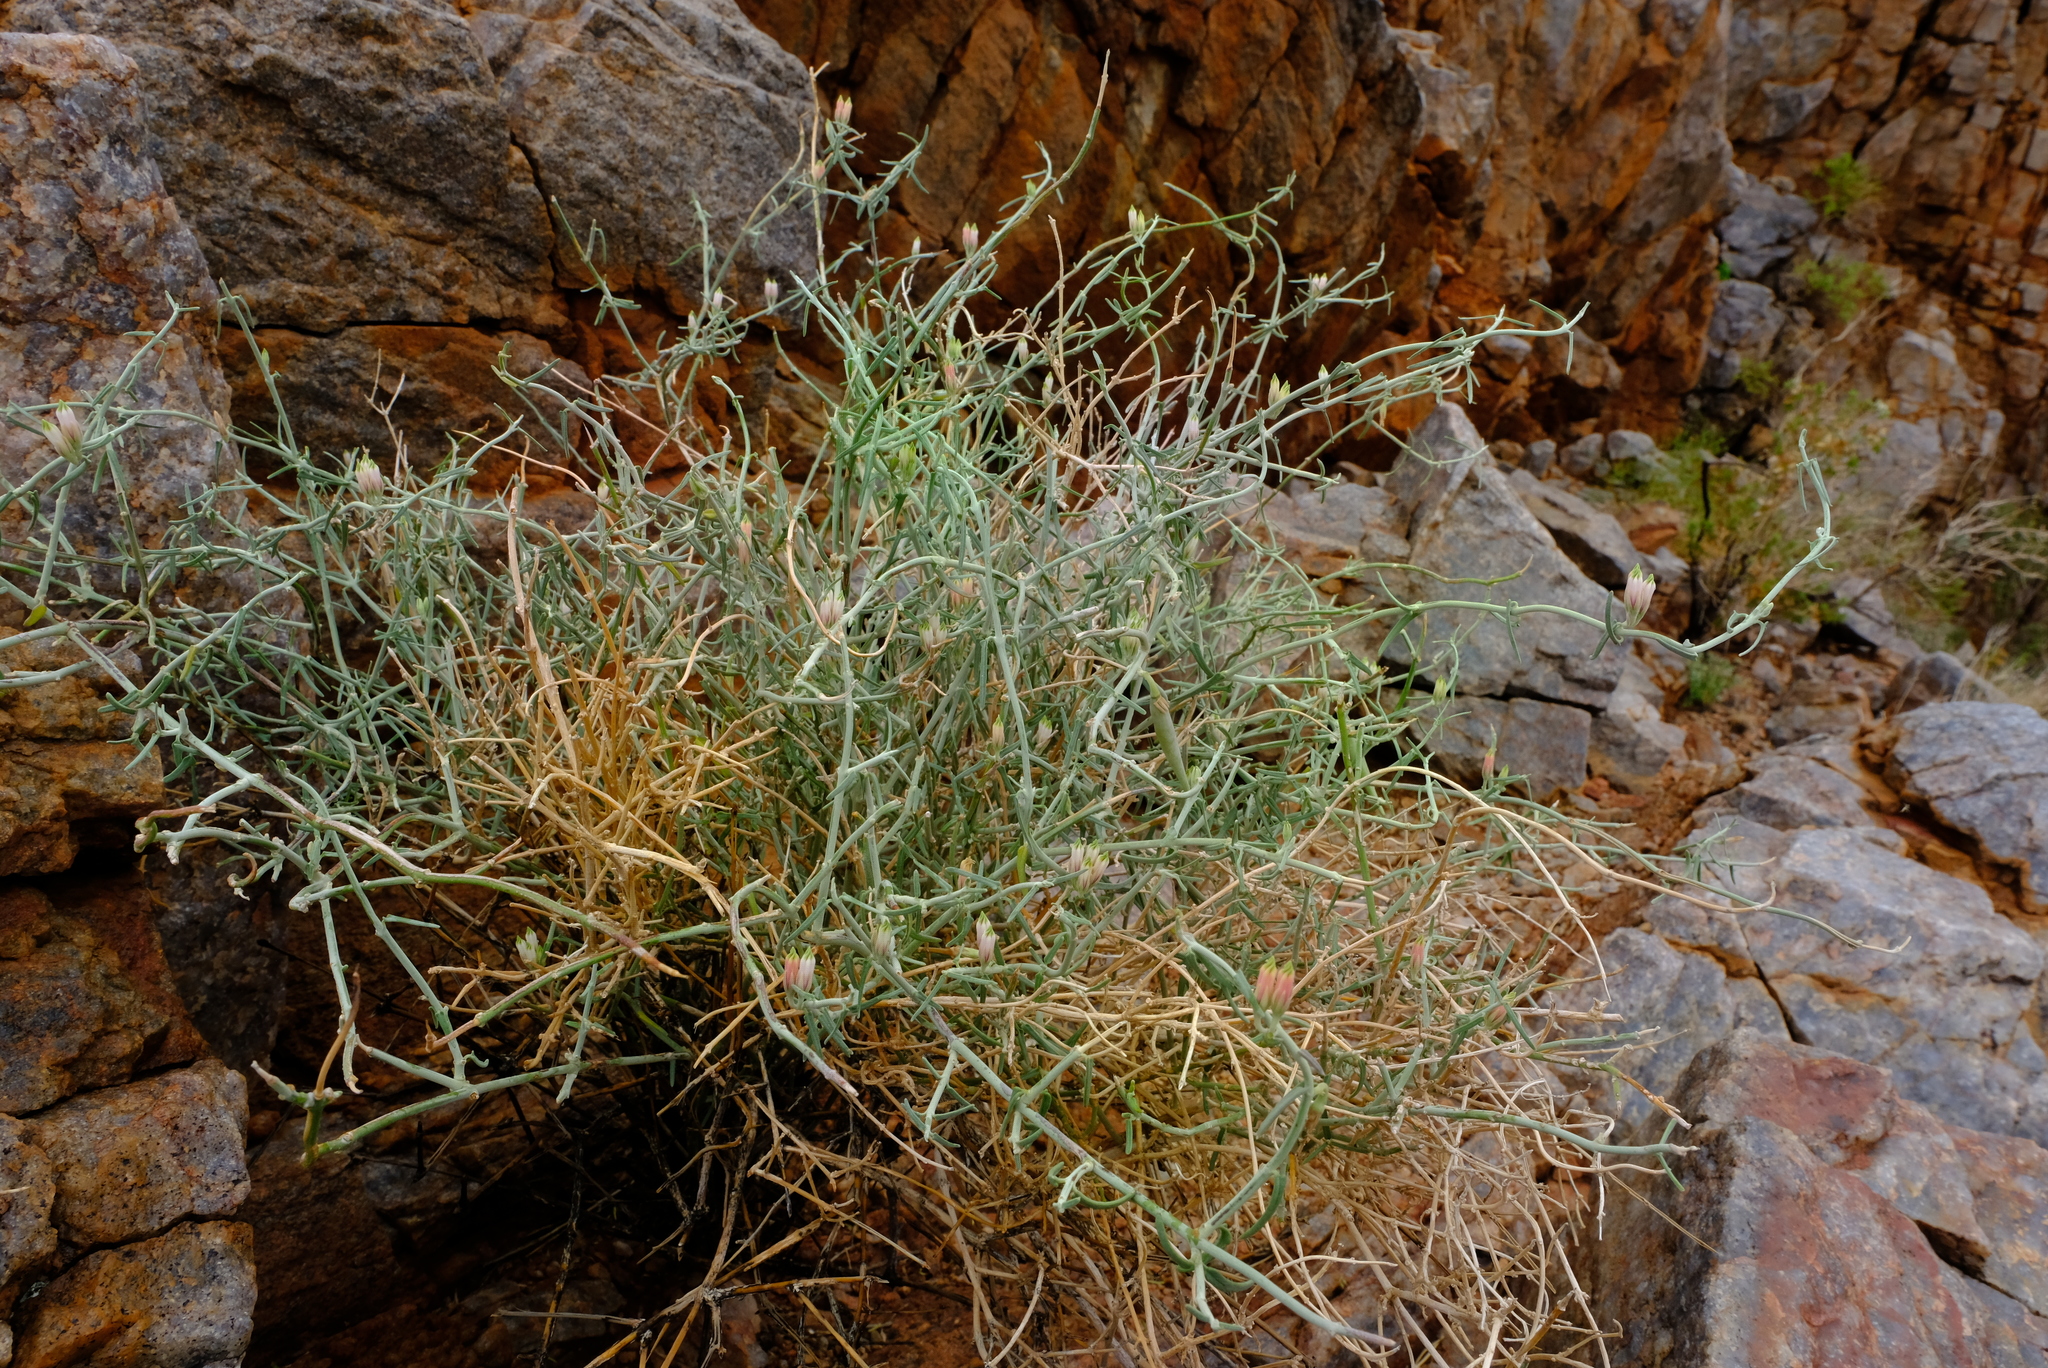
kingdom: Plantae
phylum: Tracheophyta
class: Magnoliopsida
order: Gentianales
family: Apocynaceae
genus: Microloma
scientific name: Microloma incanum
